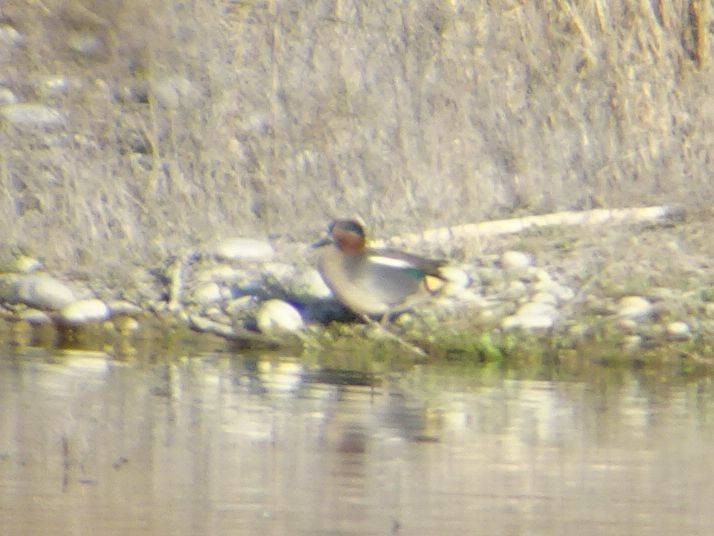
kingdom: Animalia
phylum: Chordata
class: Aves
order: Anseriformes
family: Anatidae
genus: Anas
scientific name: Anas crecca
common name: Eurasian teal
